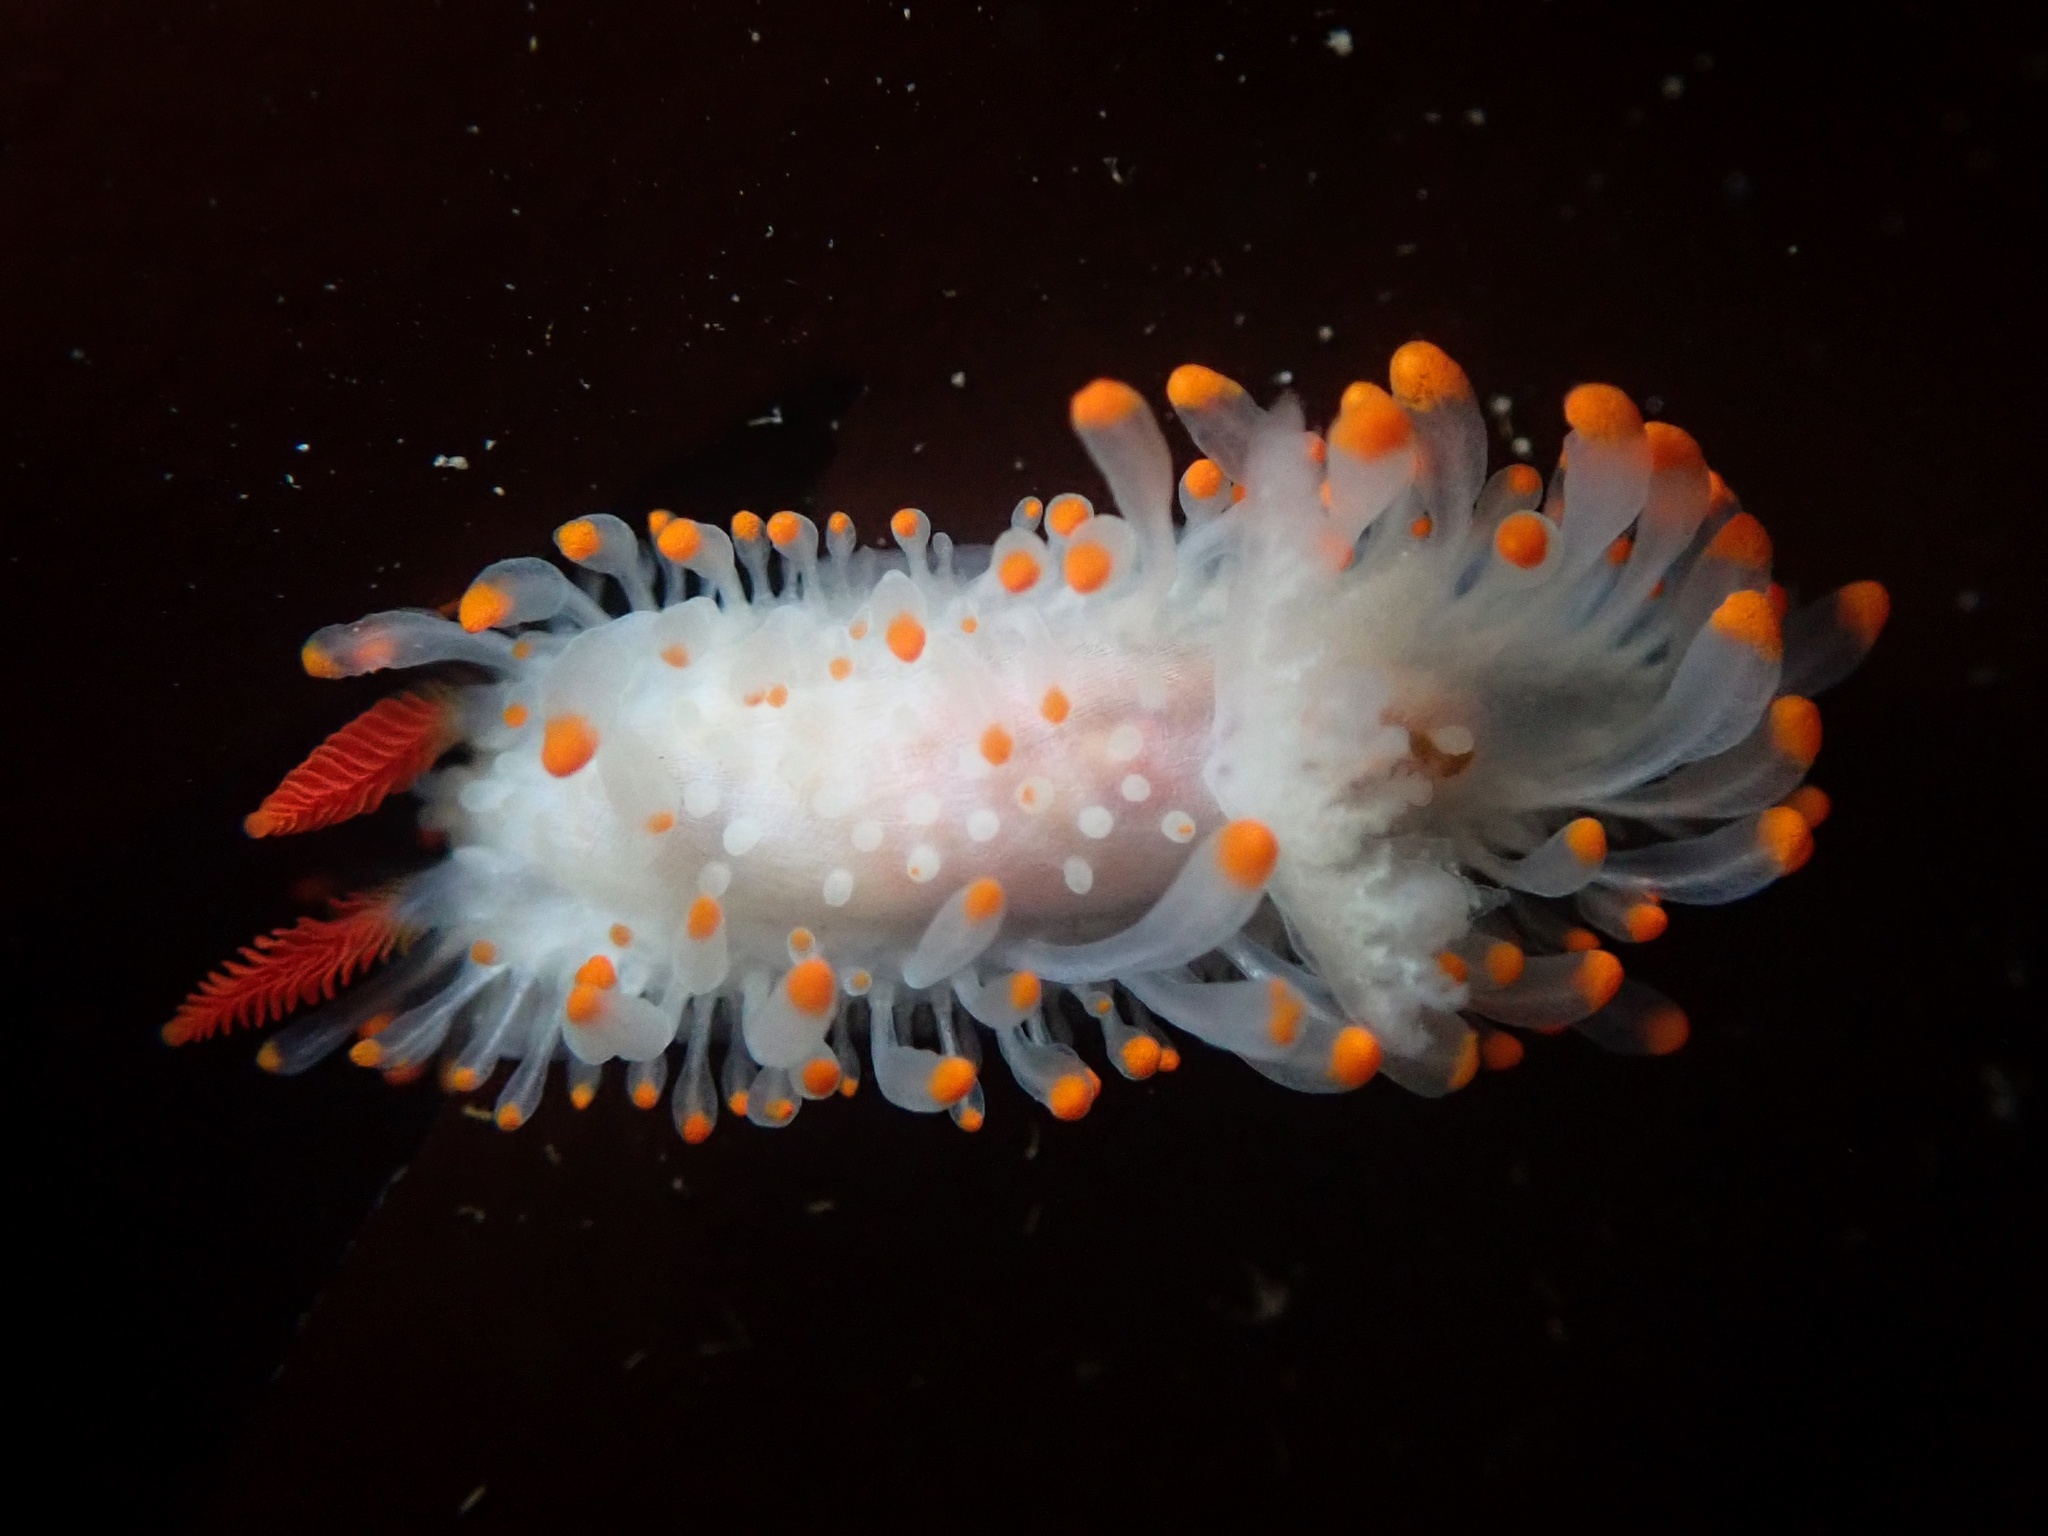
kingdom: Animalia
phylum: Mollusca
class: Gastropoda
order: Nudibranchia
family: Polyceridae
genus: Limacia
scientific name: Limacia cockerelli
